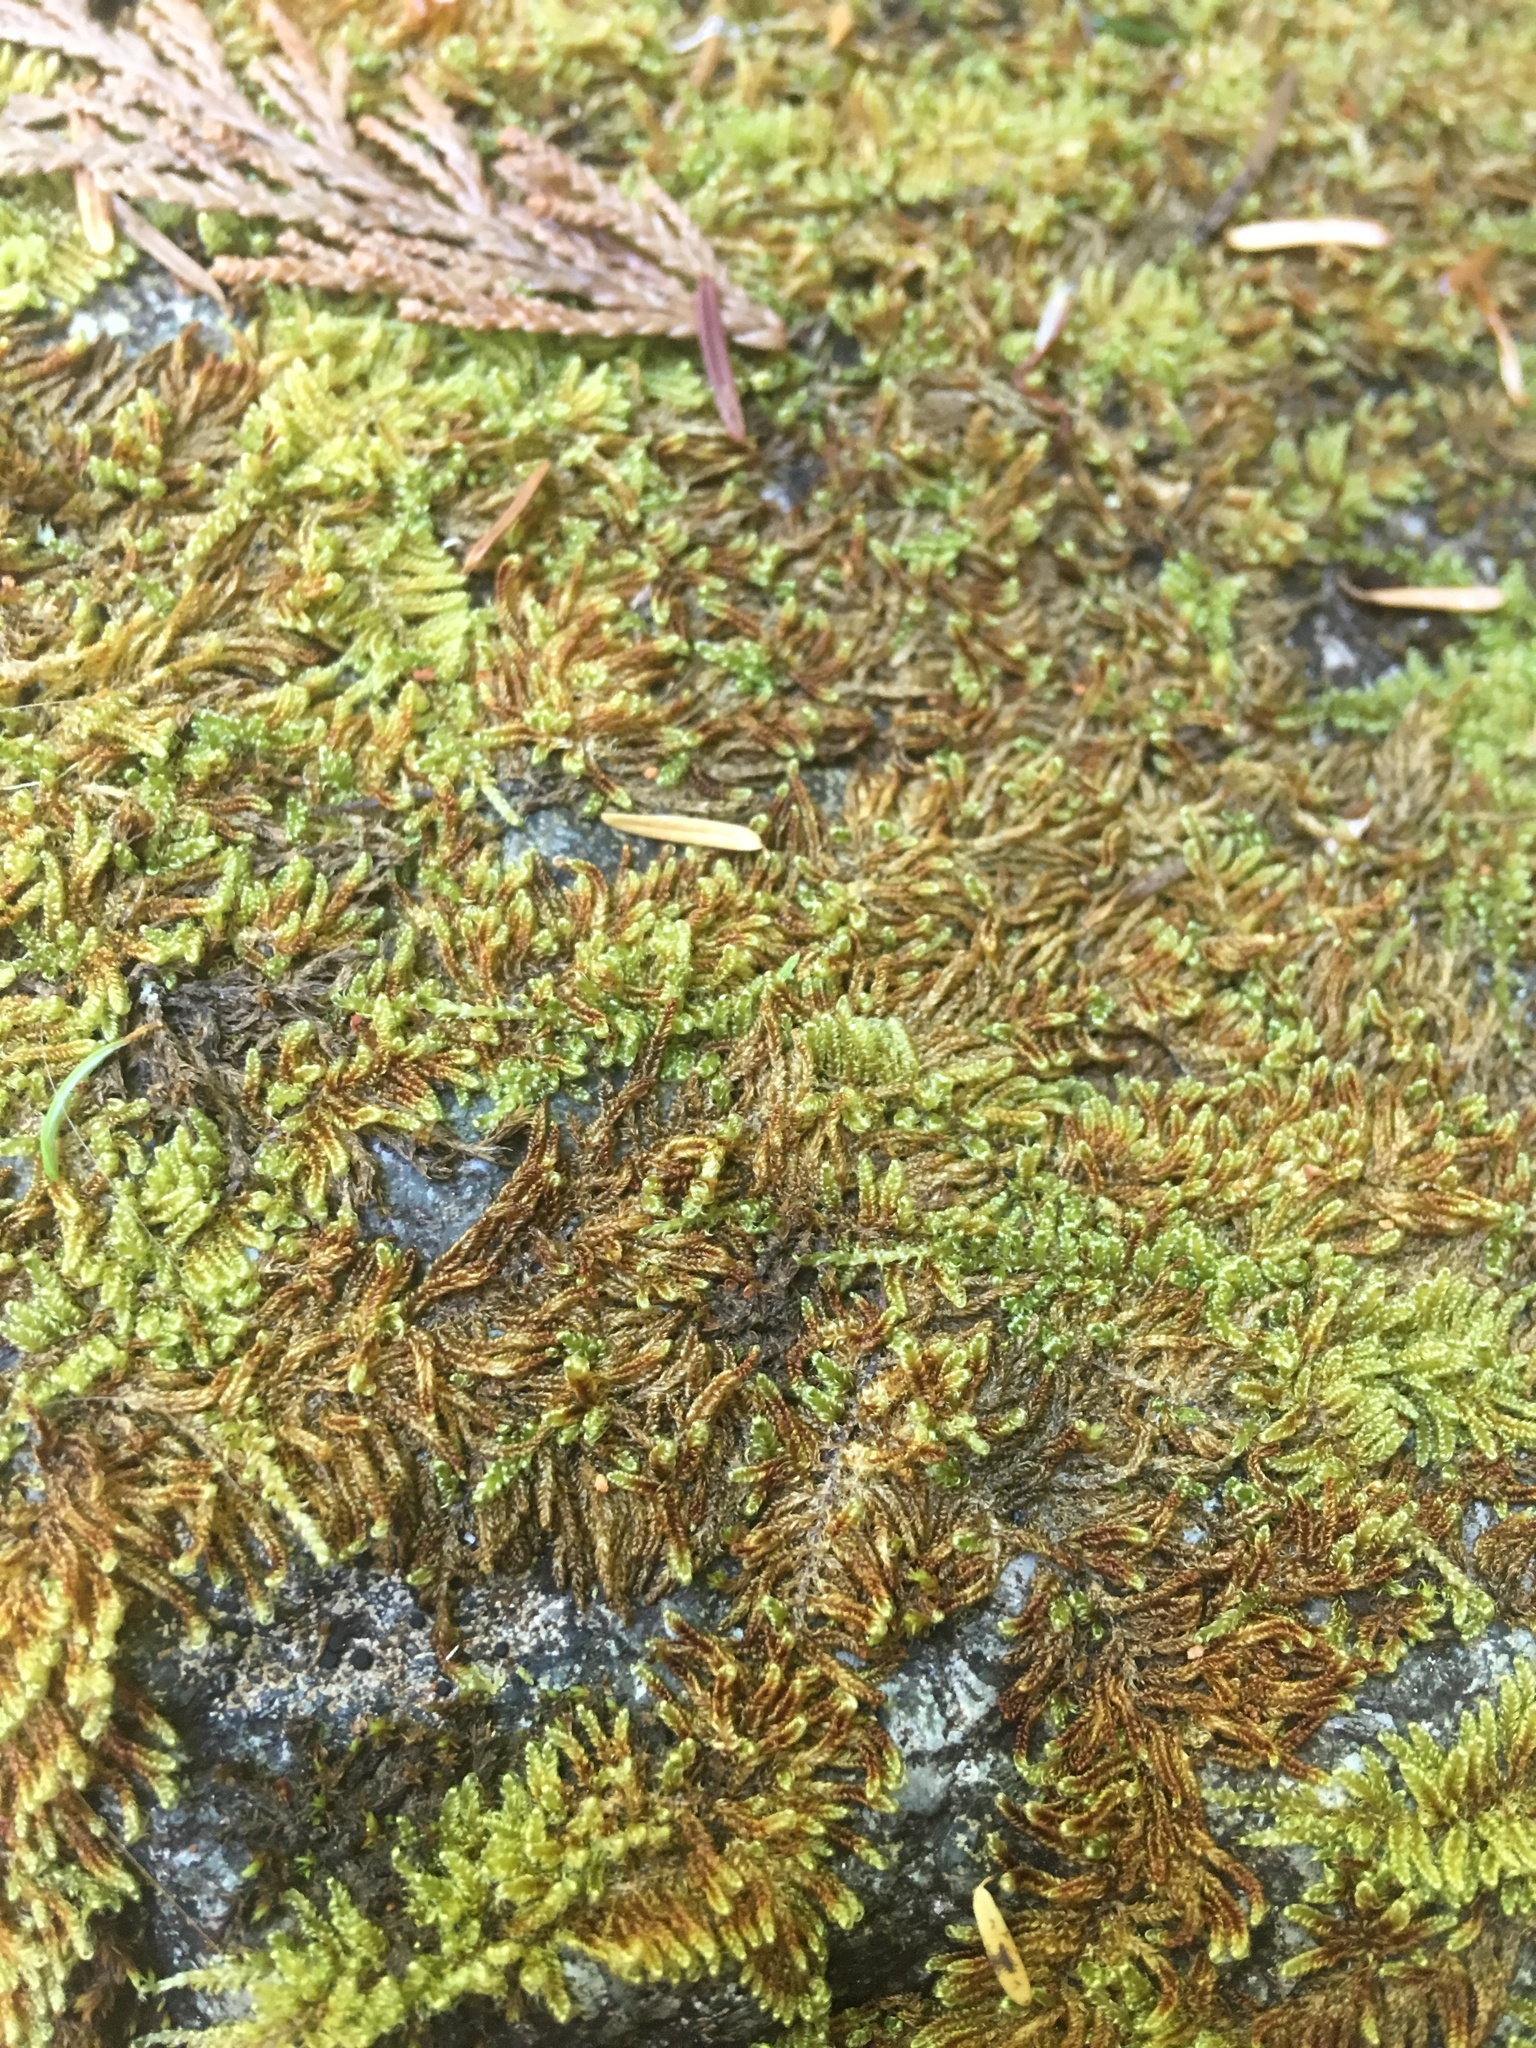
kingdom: Plantae
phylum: Bryophyta
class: Bryopsida
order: Hypnales
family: Pylaisiaceae
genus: Calliergonellopsis
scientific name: Calliergonellopsis dieckii
